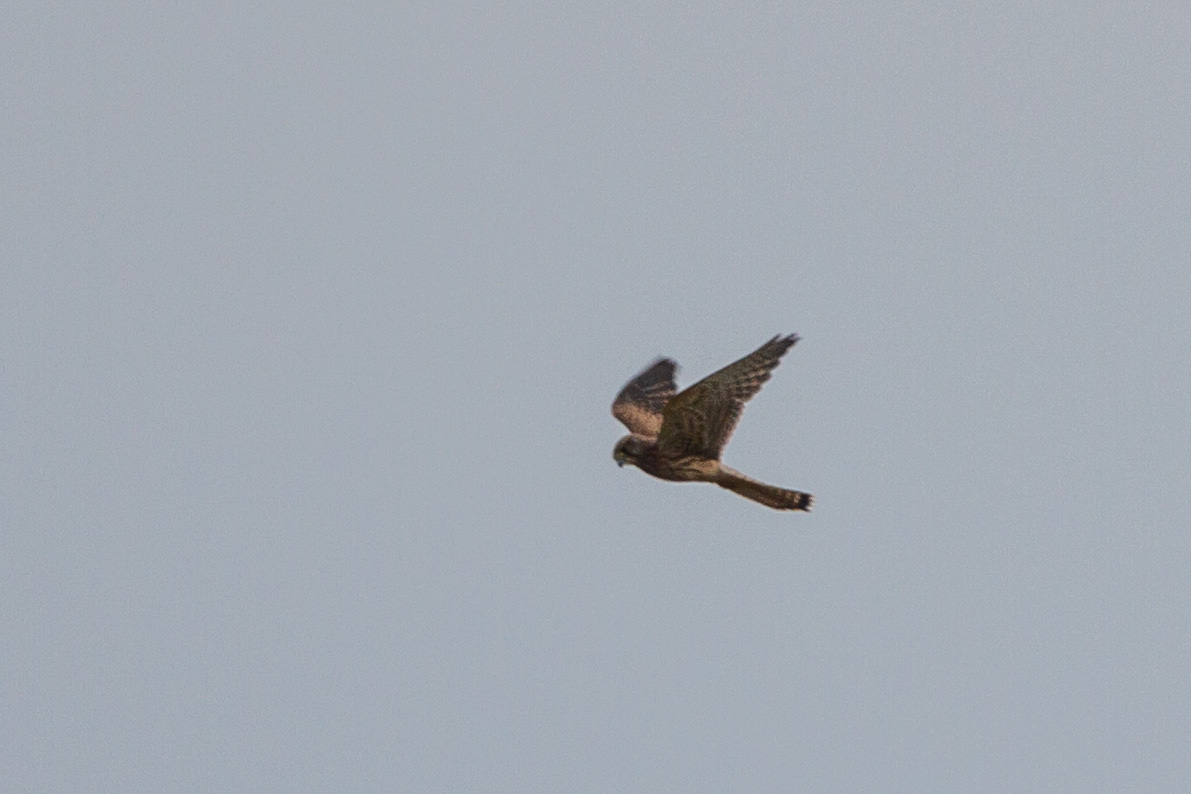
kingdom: Animalia
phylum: Chordata
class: Aves
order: Falconiformes
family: Falconidae
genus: Falco
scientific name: Falco tinnunculus
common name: Common kestrel
